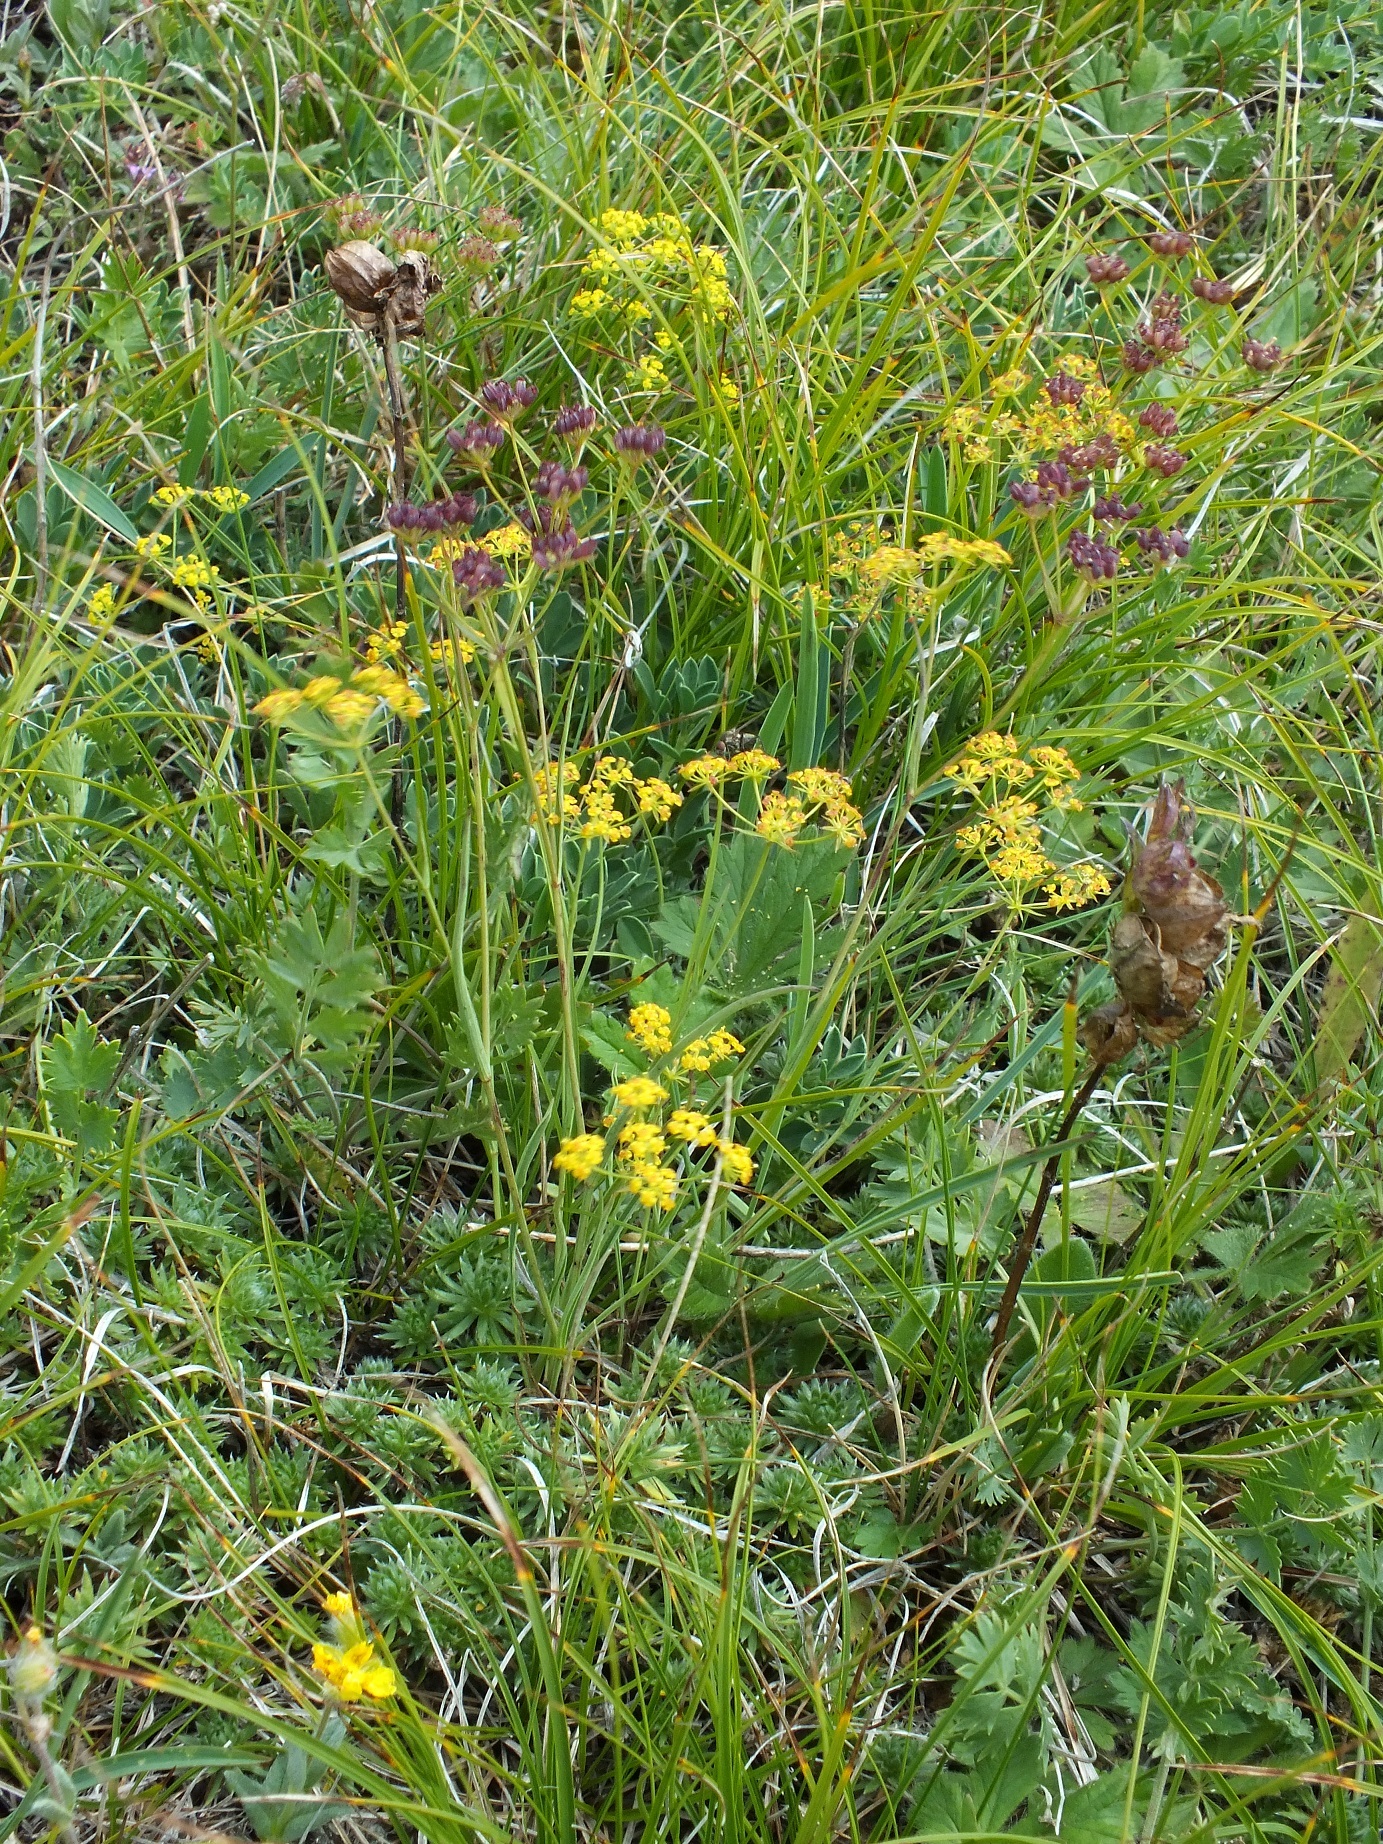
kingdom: Plantae
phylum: Tracheophyta
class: Magnoliopsida
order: Apiales
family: Apiaceae
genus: Bupleurum
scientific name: Bupleurum falcatum
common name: Sickle-leaved hare's-ear
